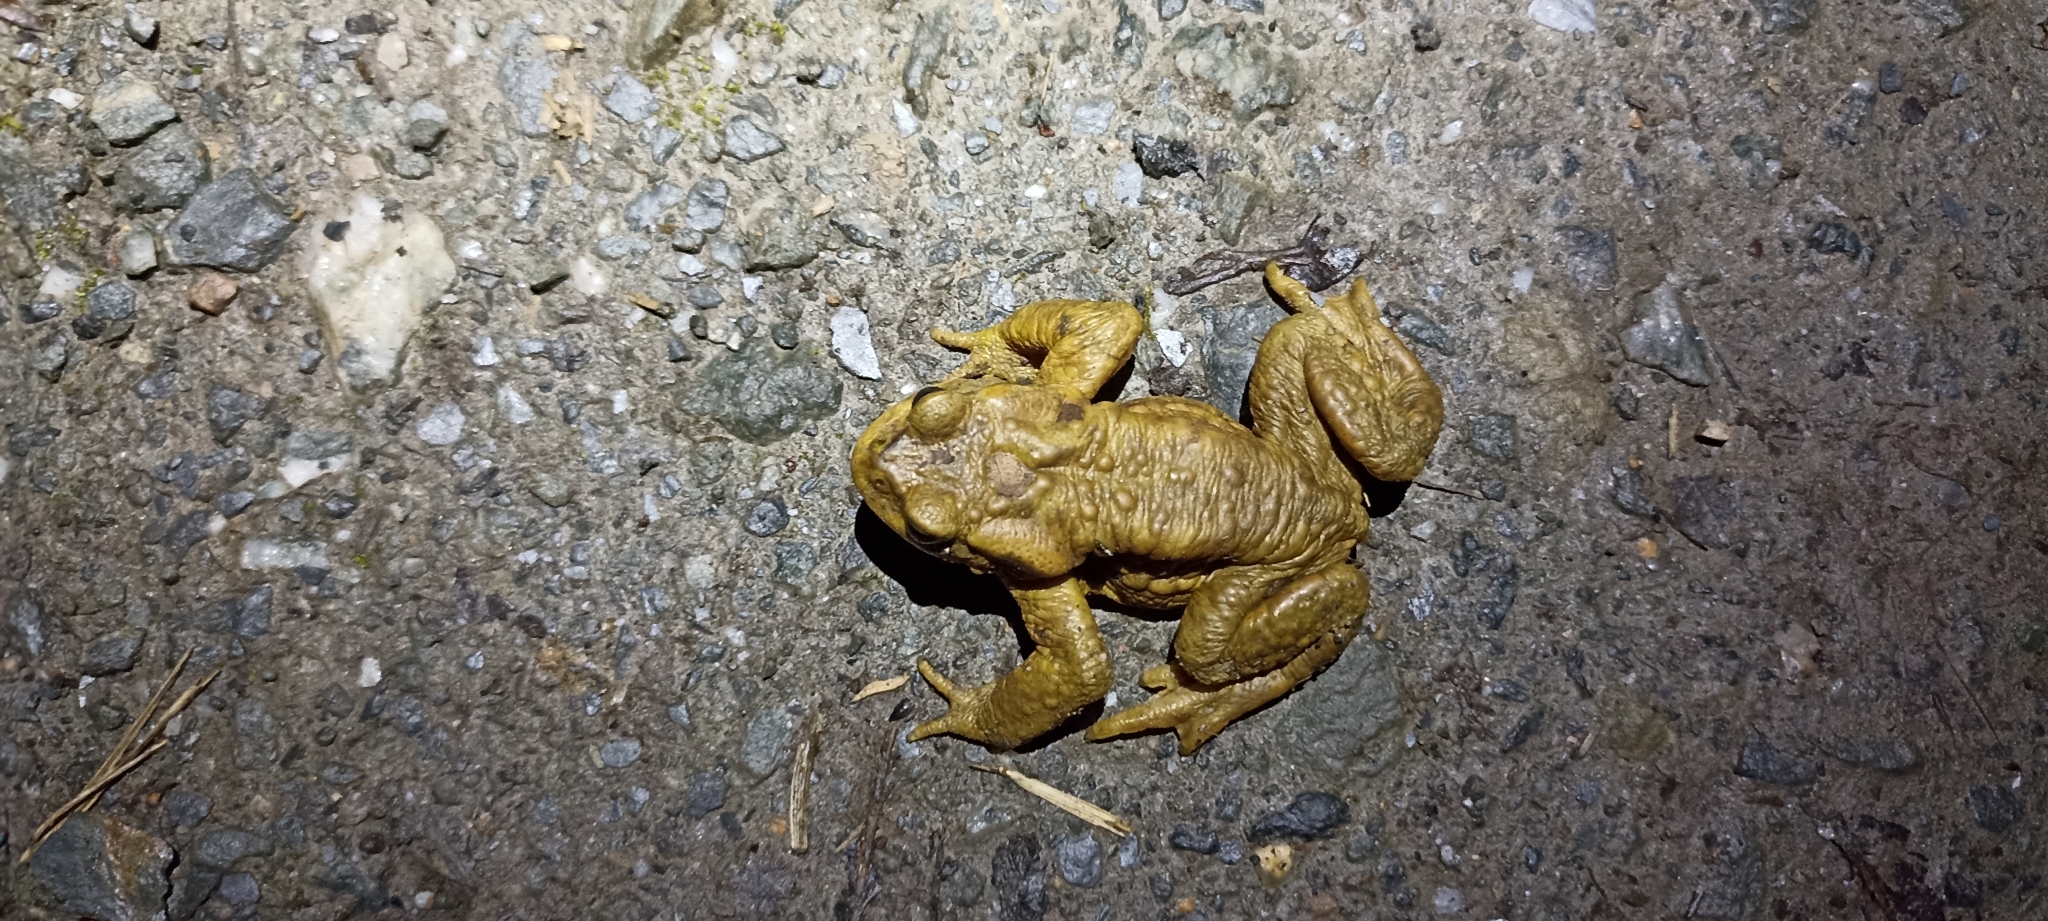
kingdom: Animalia
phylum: Chordata
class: Amphibia
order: Anura
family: Bufonidae
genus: Bufo
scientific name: Bufo spinosus
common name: Western common toad
